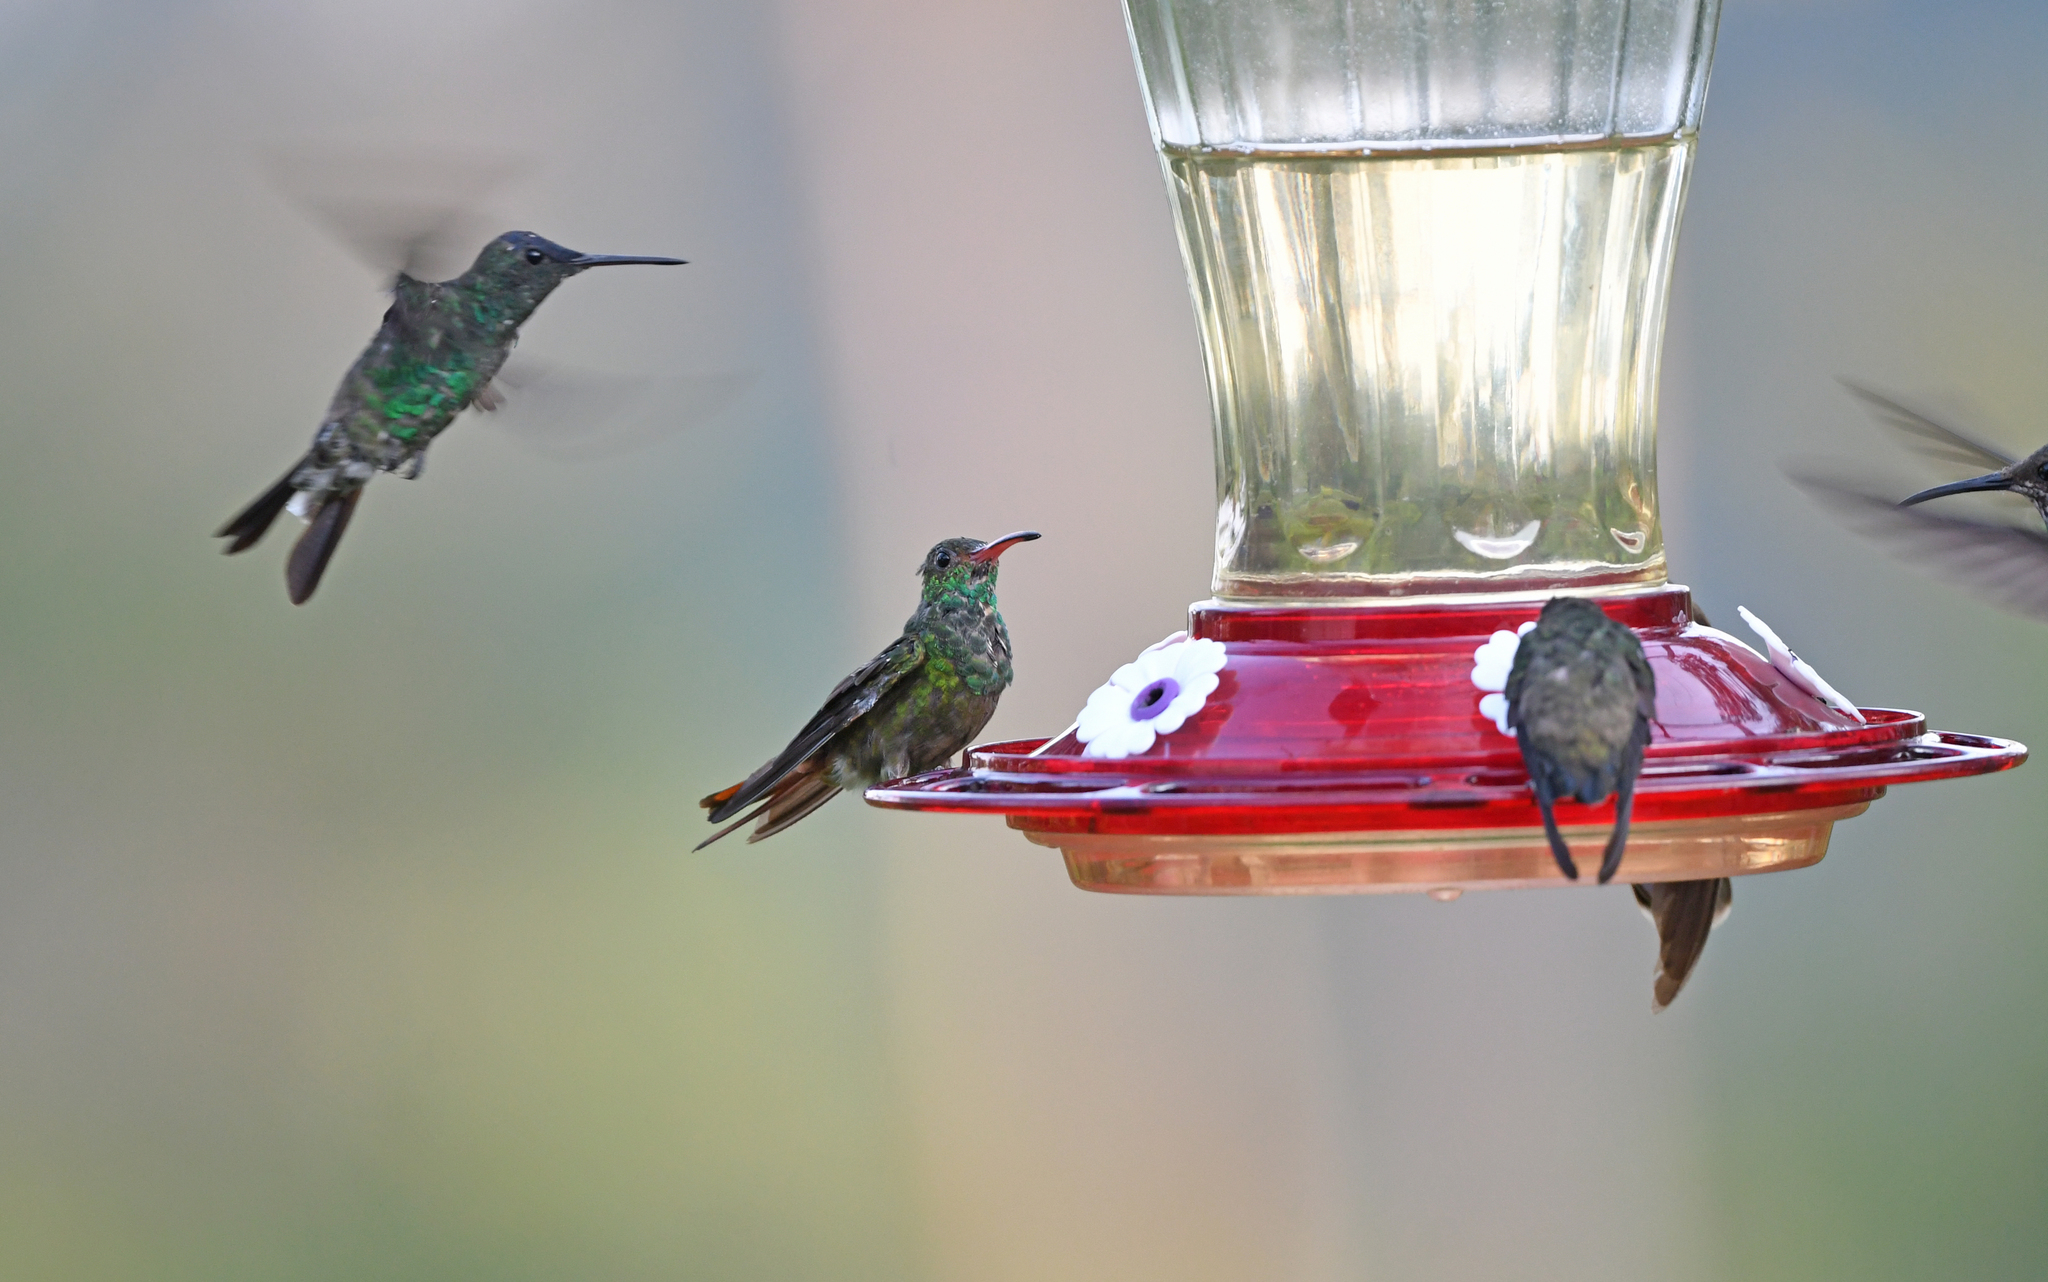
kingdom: Animalia
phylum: Chordata
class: Aves
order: Apodiformes
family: Trochilidae
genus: Amazilia
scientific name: Amazilia tzacatl
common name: Rufous-tailed hummingbird
